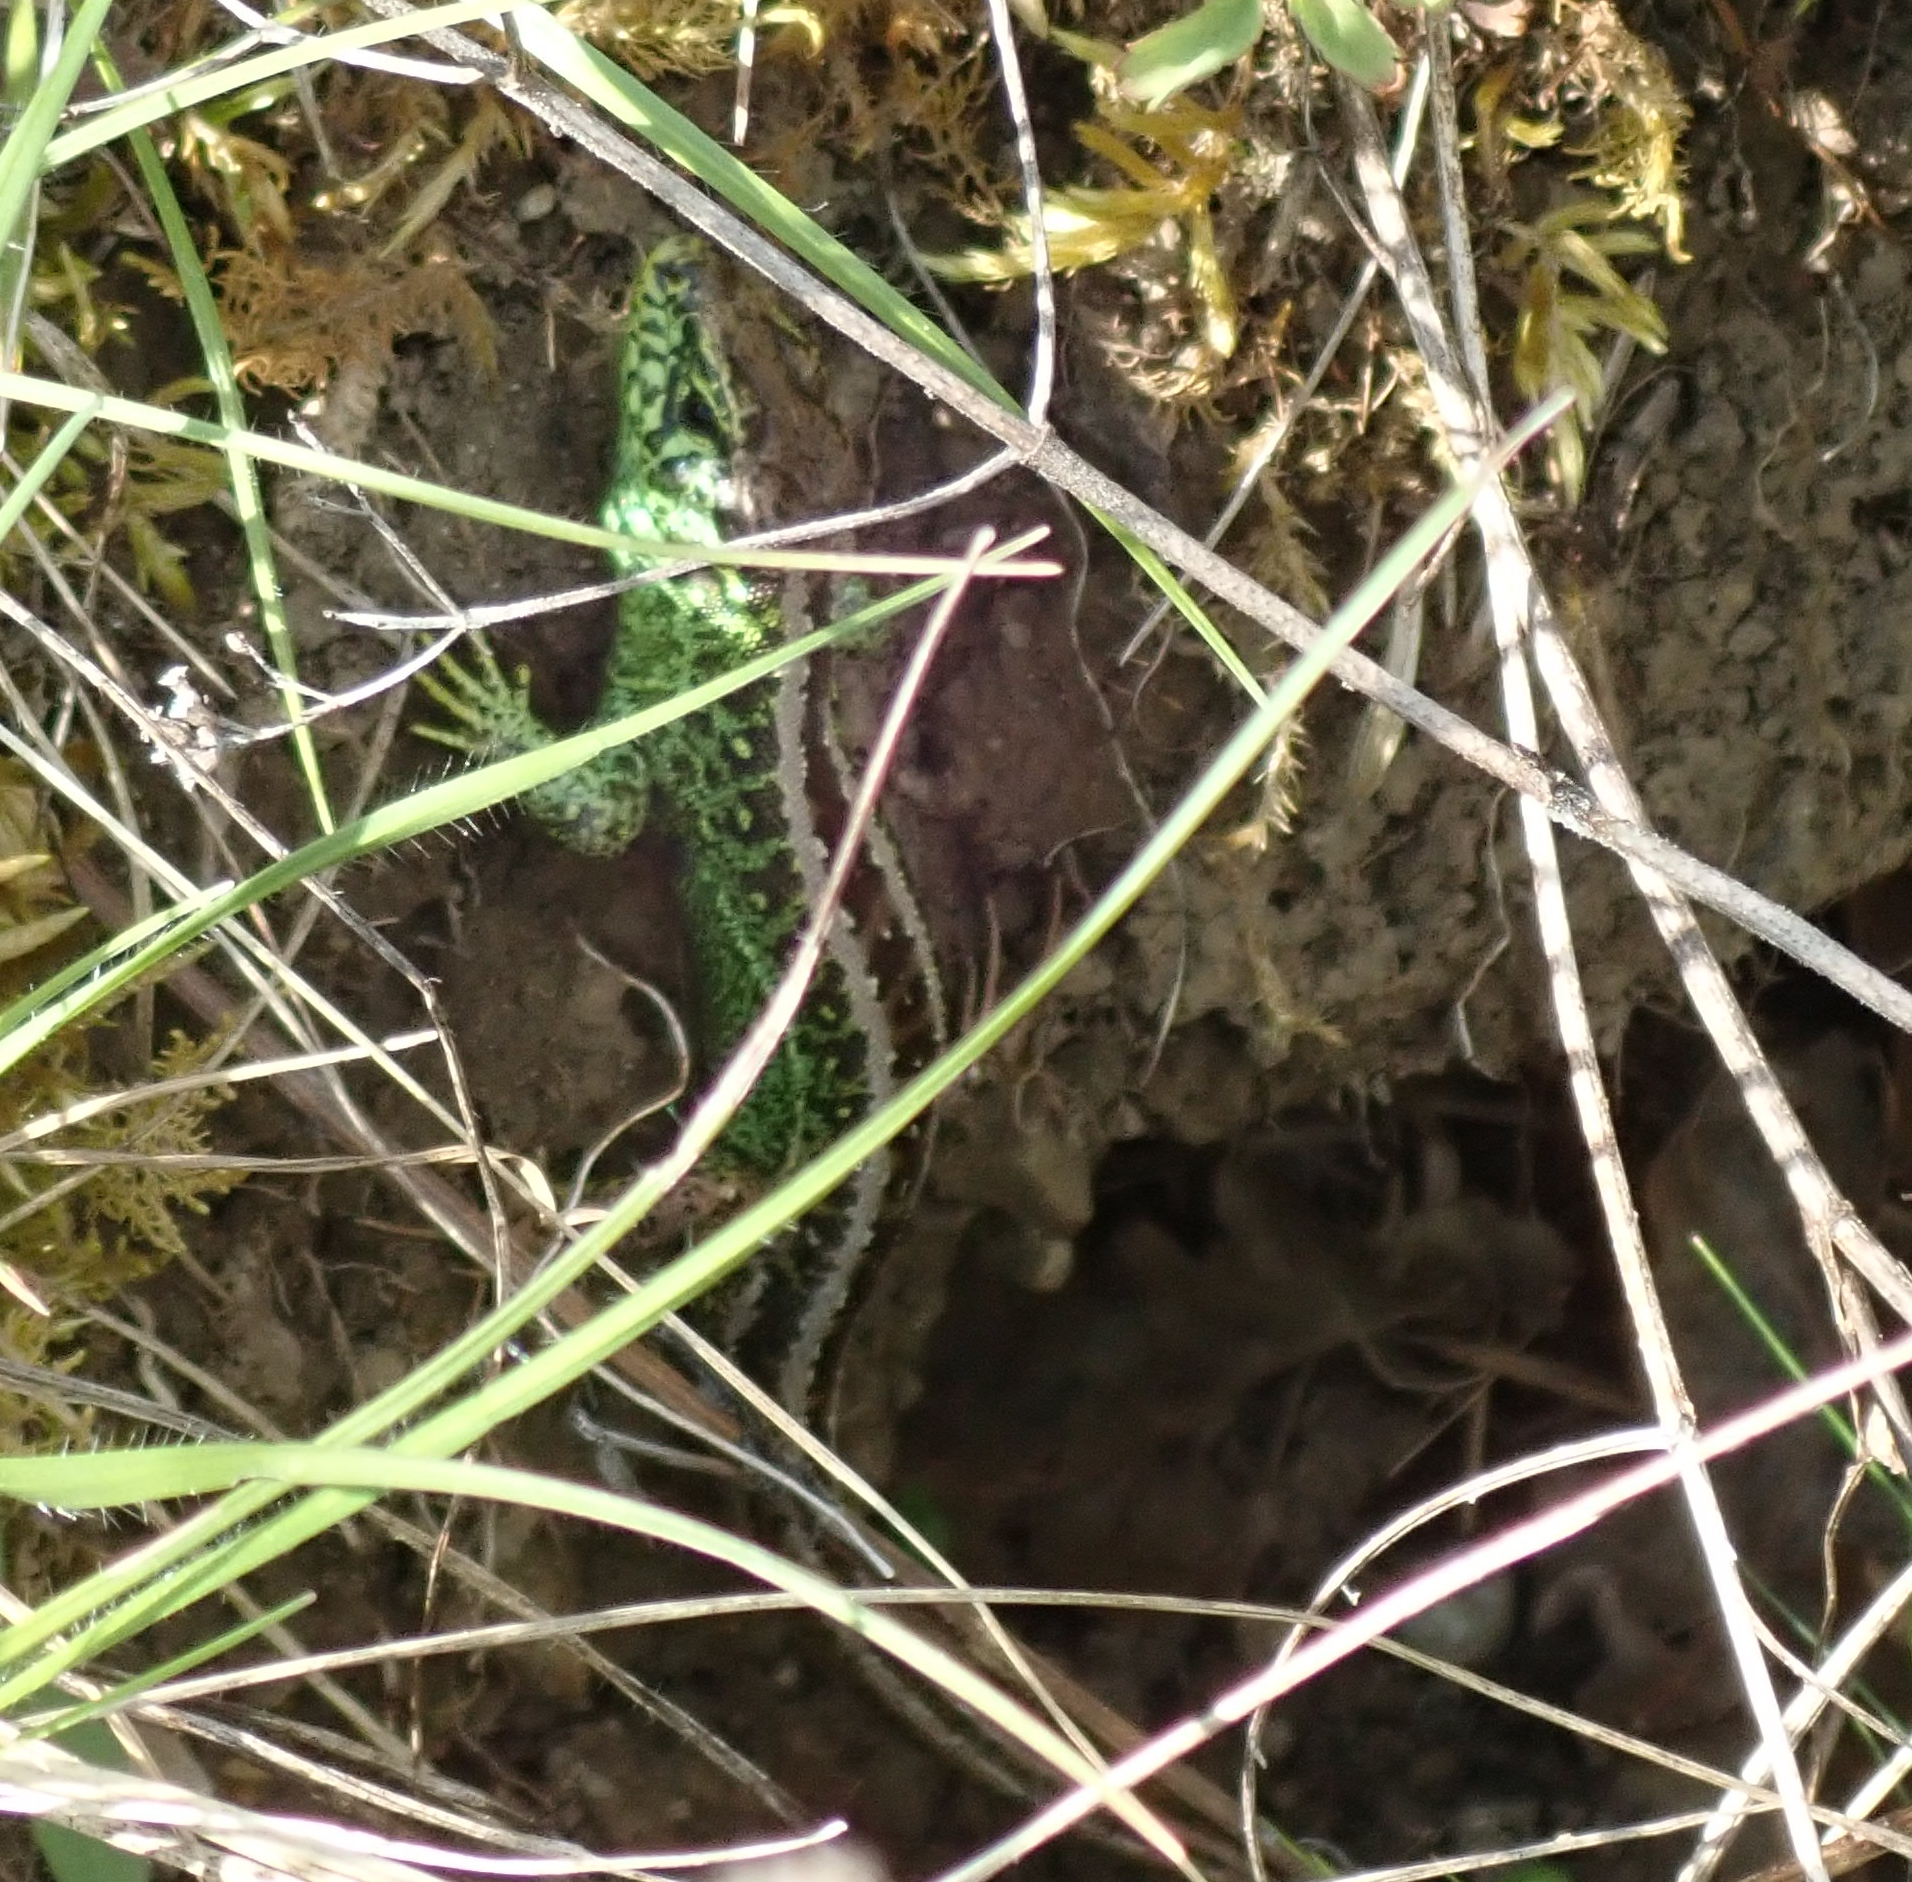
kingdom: Animalia
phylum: Chordata
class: Squamata
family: Lacertidae
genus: Lacerta
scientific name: Lacerta agilis
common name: Sand lizard
